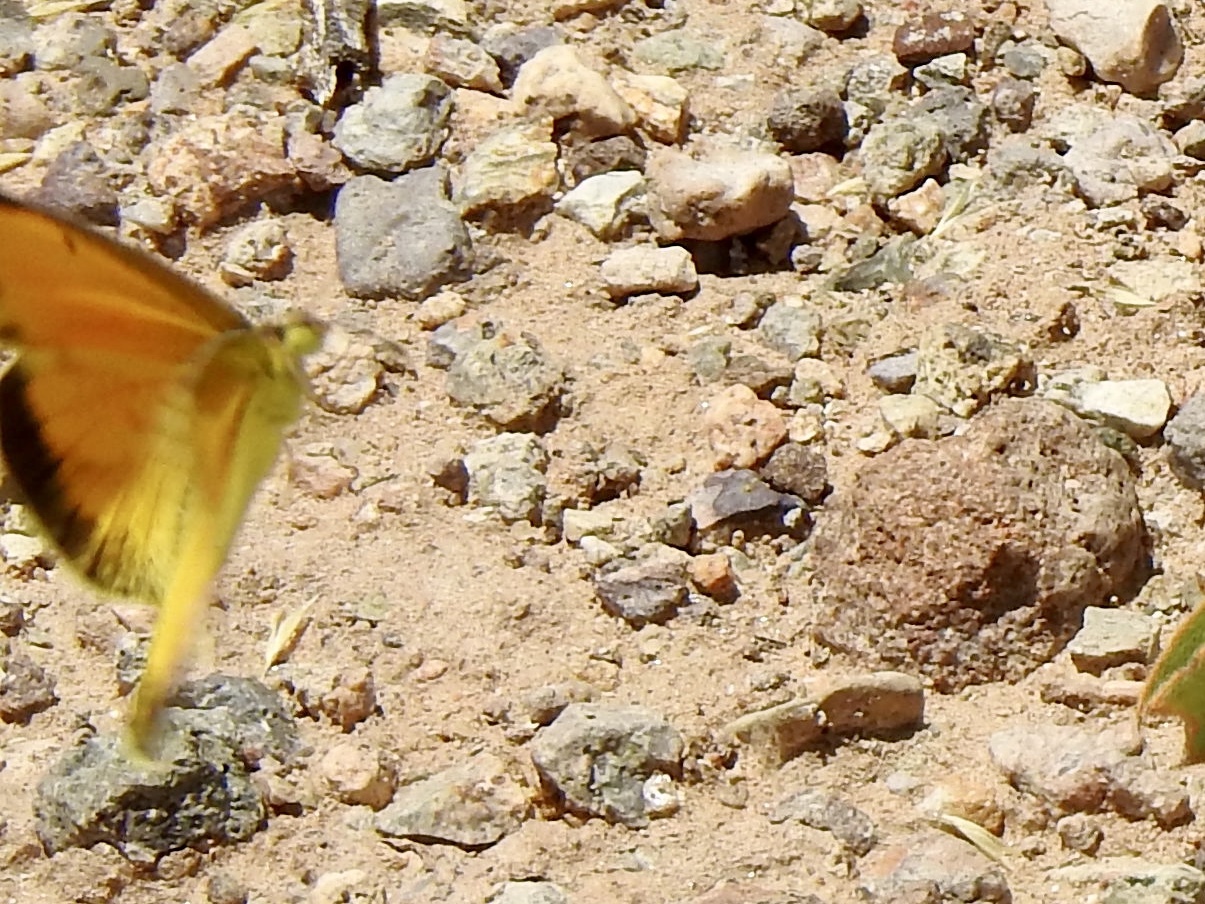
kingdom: Animalia
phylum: Arthropoda
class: Insecta
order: Lepidoptera
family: Pieridae
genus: Abaeis
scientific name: Abaeis nicippe
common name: Sleepy orange
